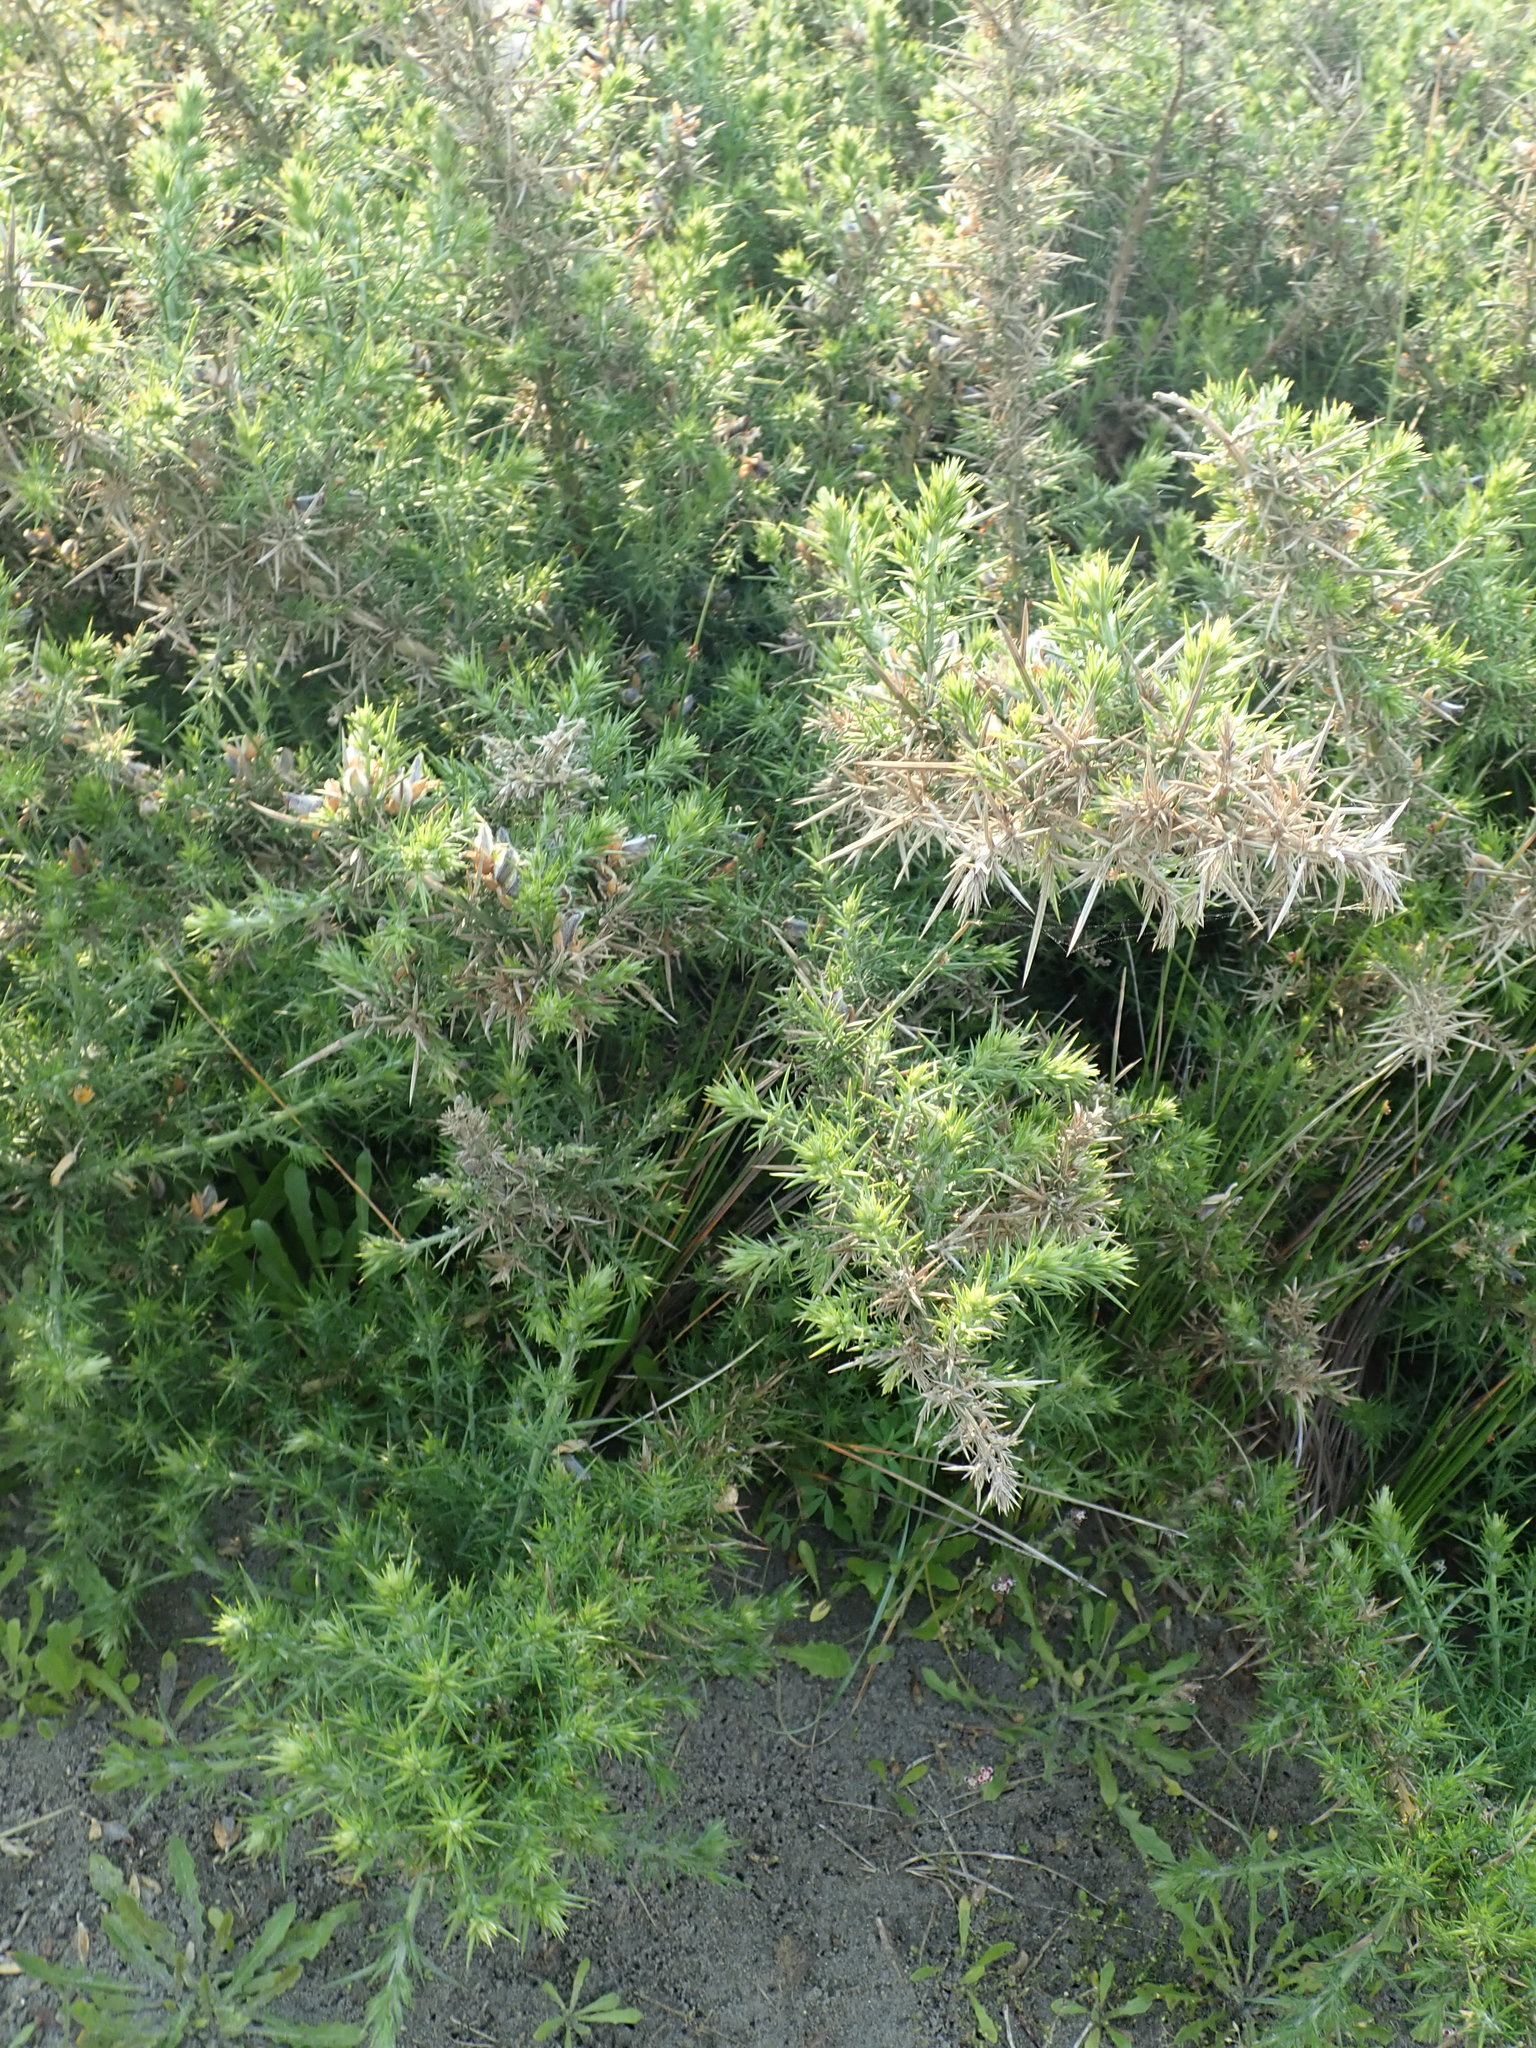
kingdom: Plantae
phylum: Tracheophyta
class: Magnoliopsida
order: Fabales
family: Fabaceae
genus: Ulex
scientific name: Ulex europaeus
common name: Common gorse
